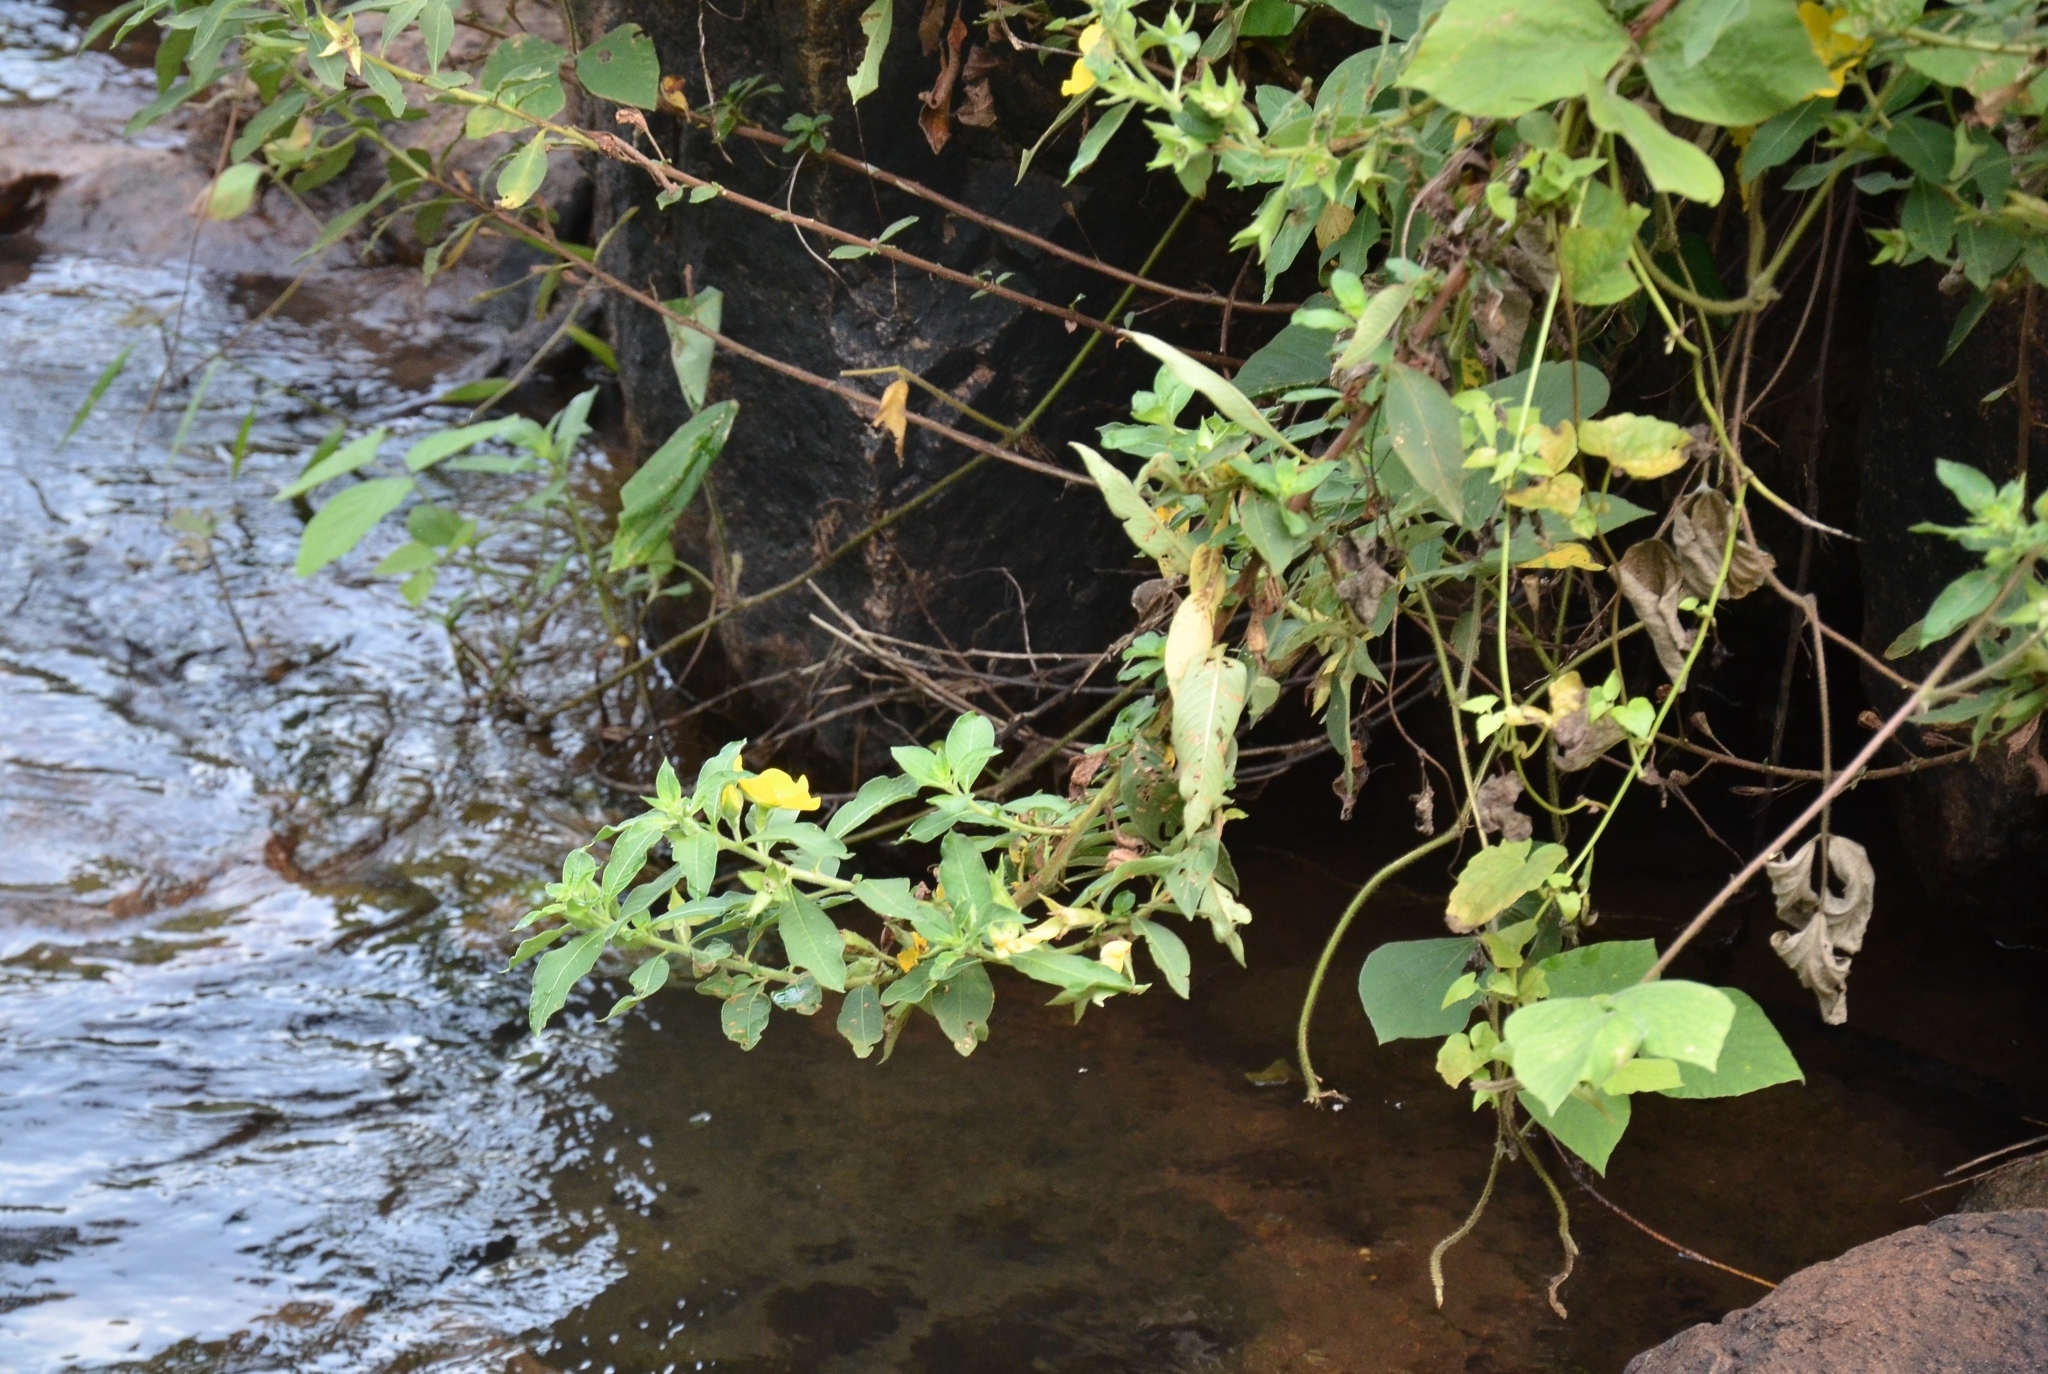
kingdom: Plantae
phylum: Tracheophyta
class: Magnoliopsida
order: Myrtales
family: Onagraceae
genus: Ludwigia
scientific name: Ludwigia peruviana
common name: Peruvian primrose-willow
